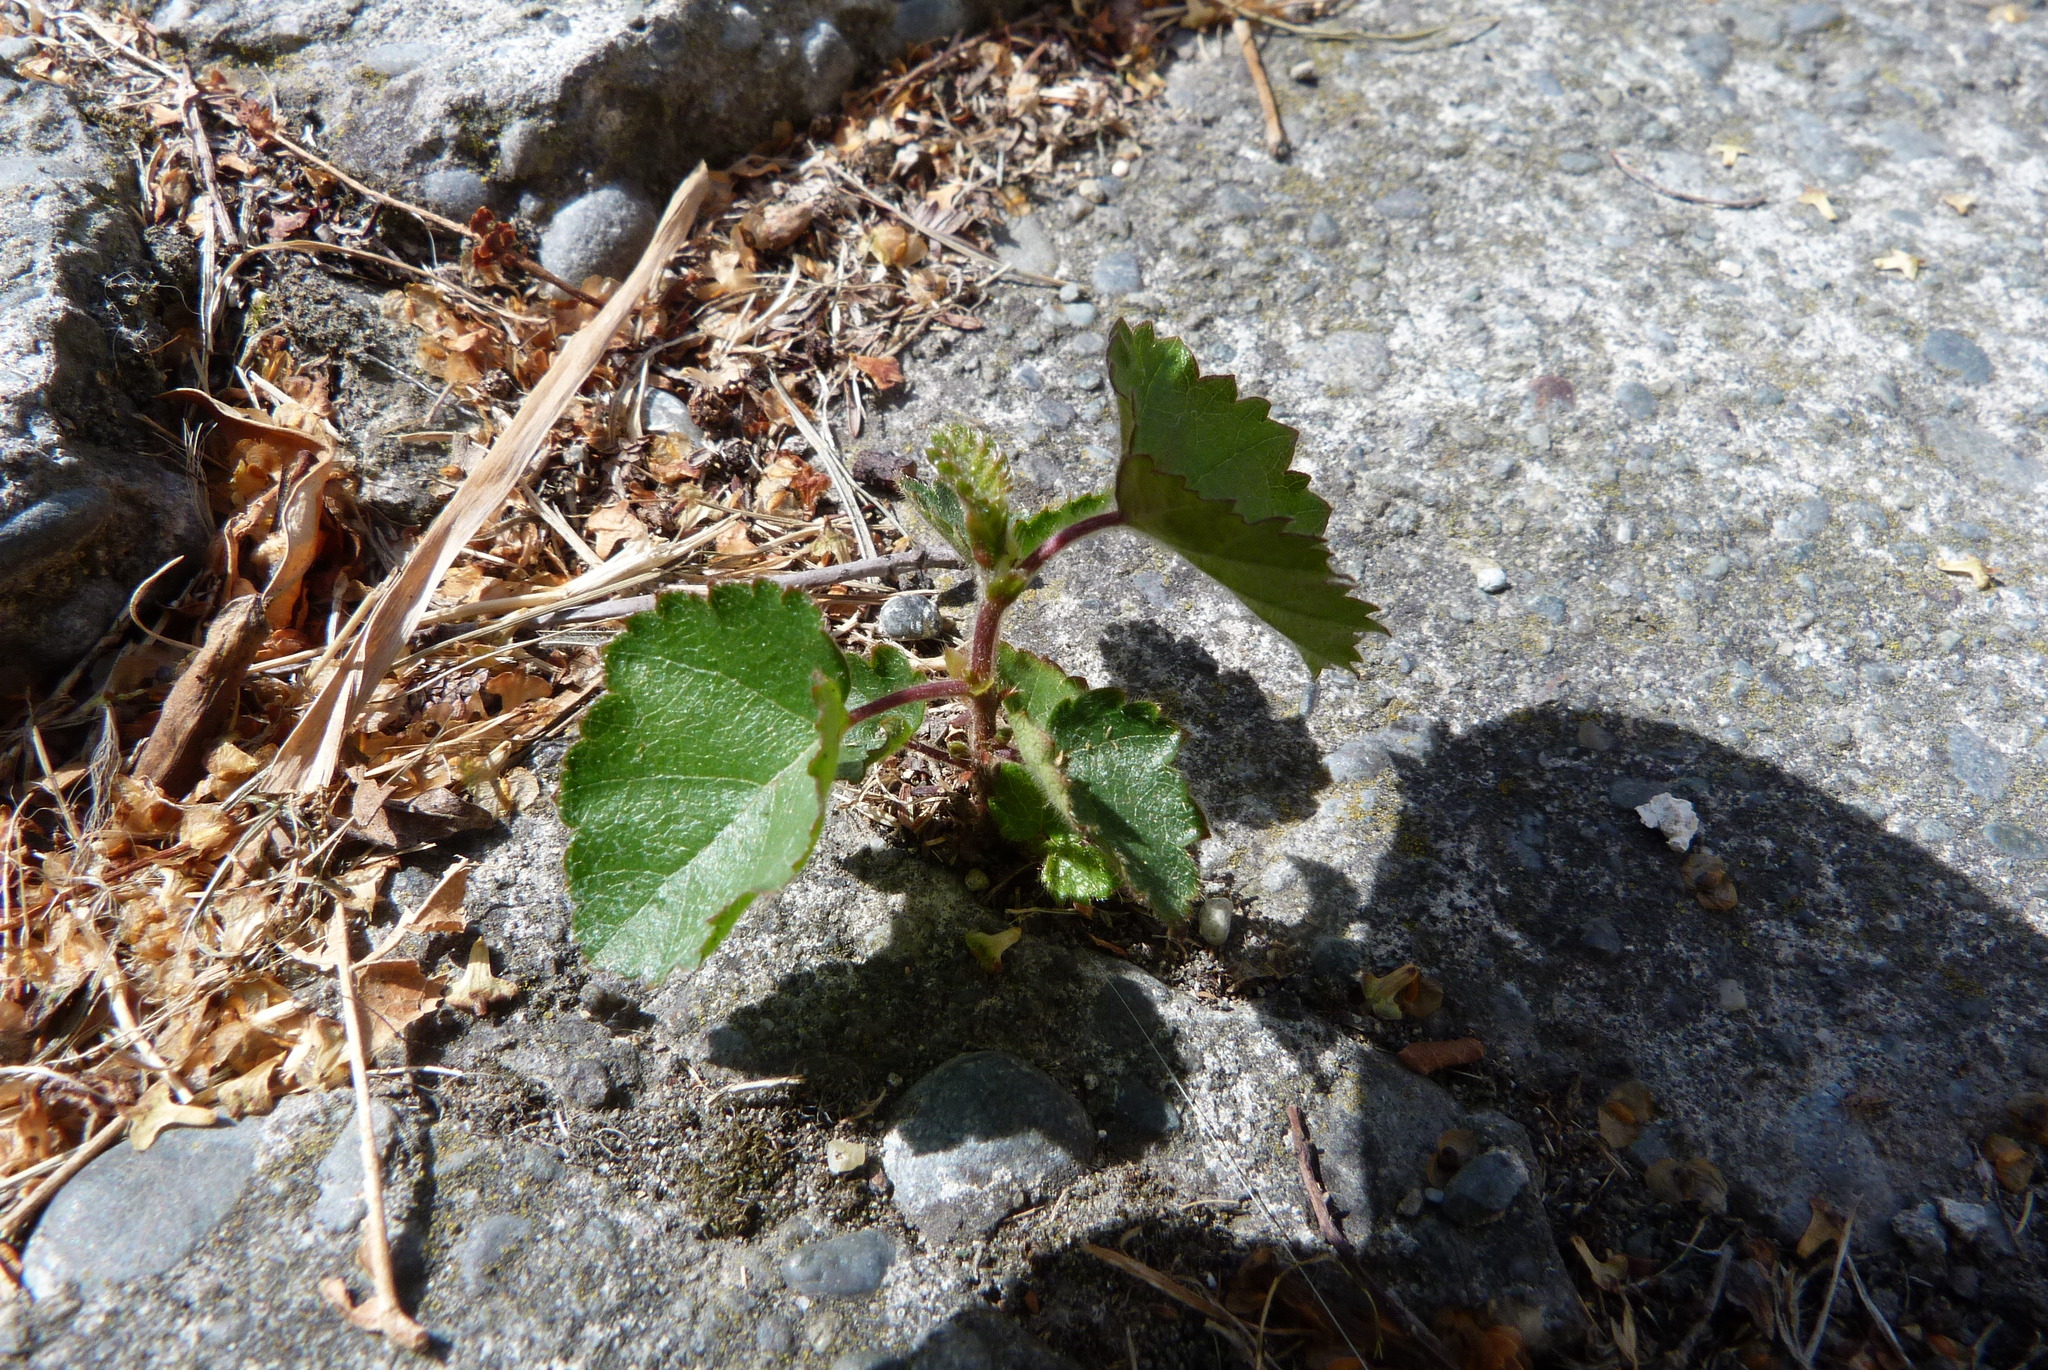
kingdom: Plantae
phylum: Tracheophyta
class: Magnoliopsida
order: Fagales
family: Betulaceae
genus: Betula
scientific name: Betula pendula
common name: Silver birch
